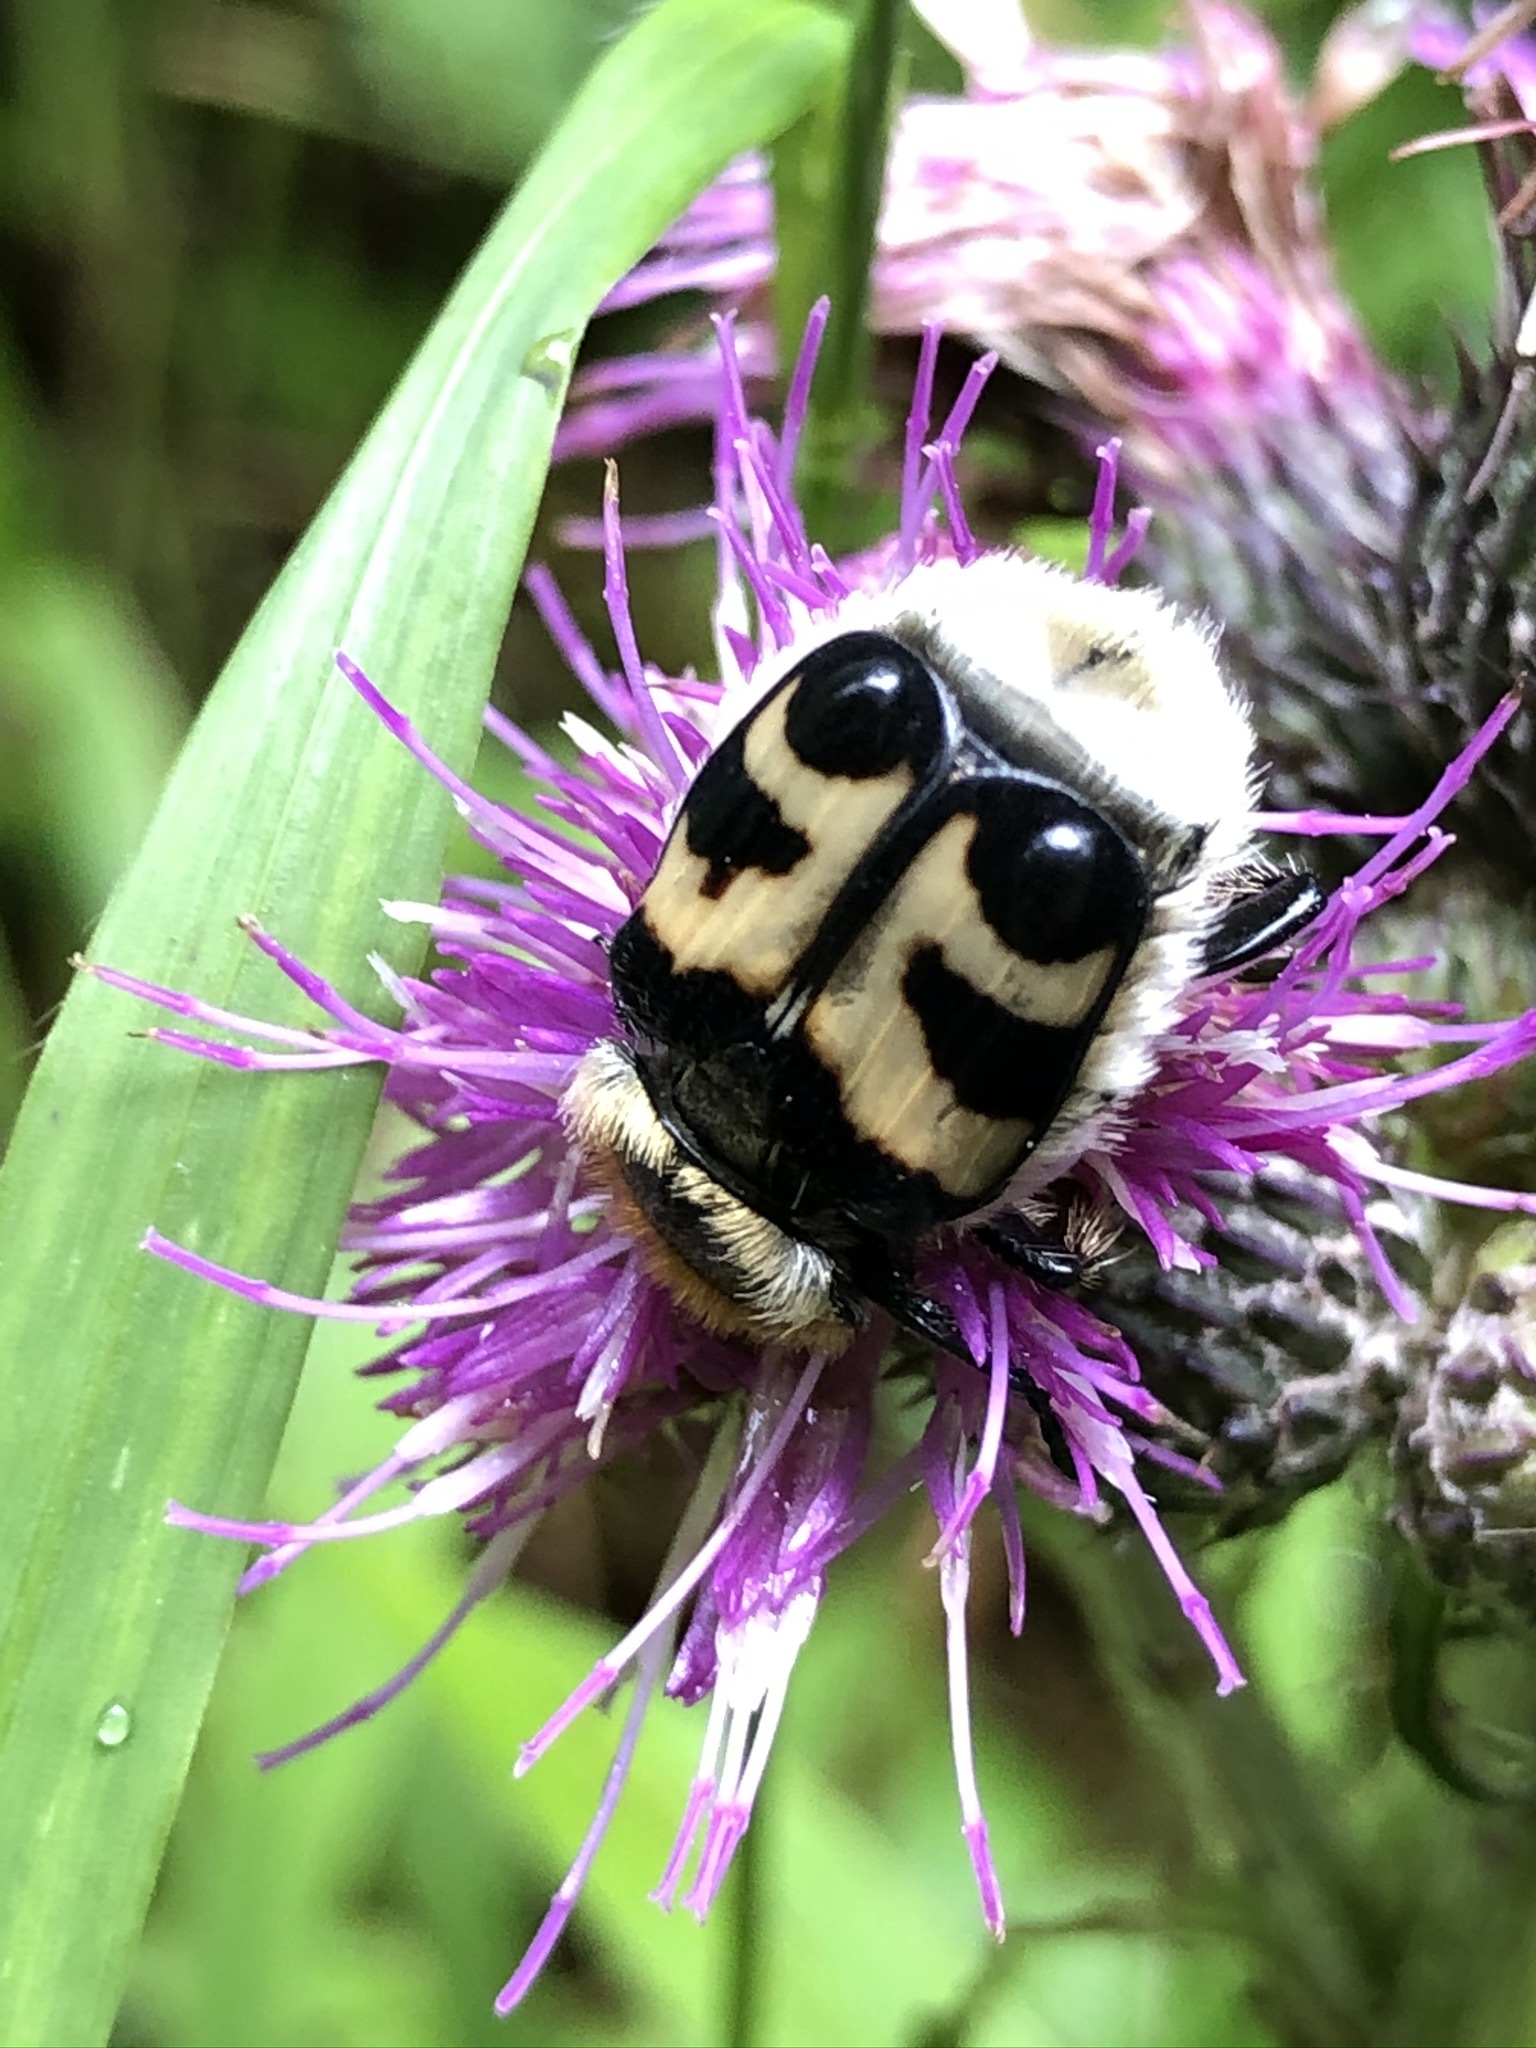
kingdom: Animalia
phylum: Arthropoda
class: Insecta
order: Coleoptera
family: Scarabaeidae
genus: Trichius
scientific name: Trichius fasciatus
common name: Bee beetle
